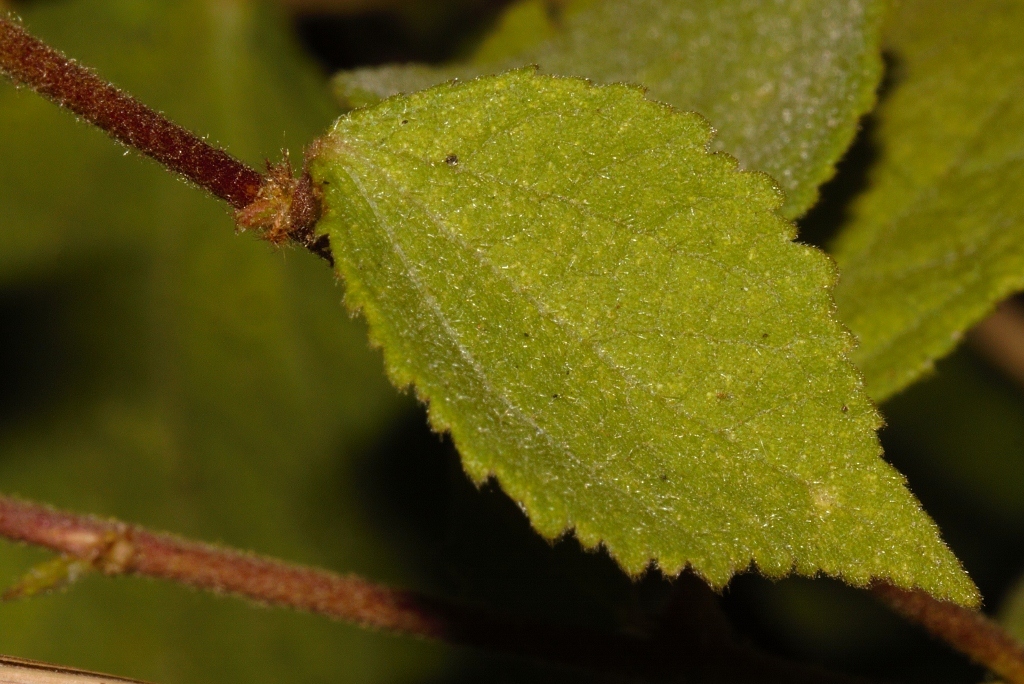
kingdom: Plantae
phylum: Tracheophyta
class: Magnoliopsida
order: Malvales
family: Malvaceae
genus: Triumfetta
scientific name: Triumfetta rhomboidea
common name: Diamond burbark
